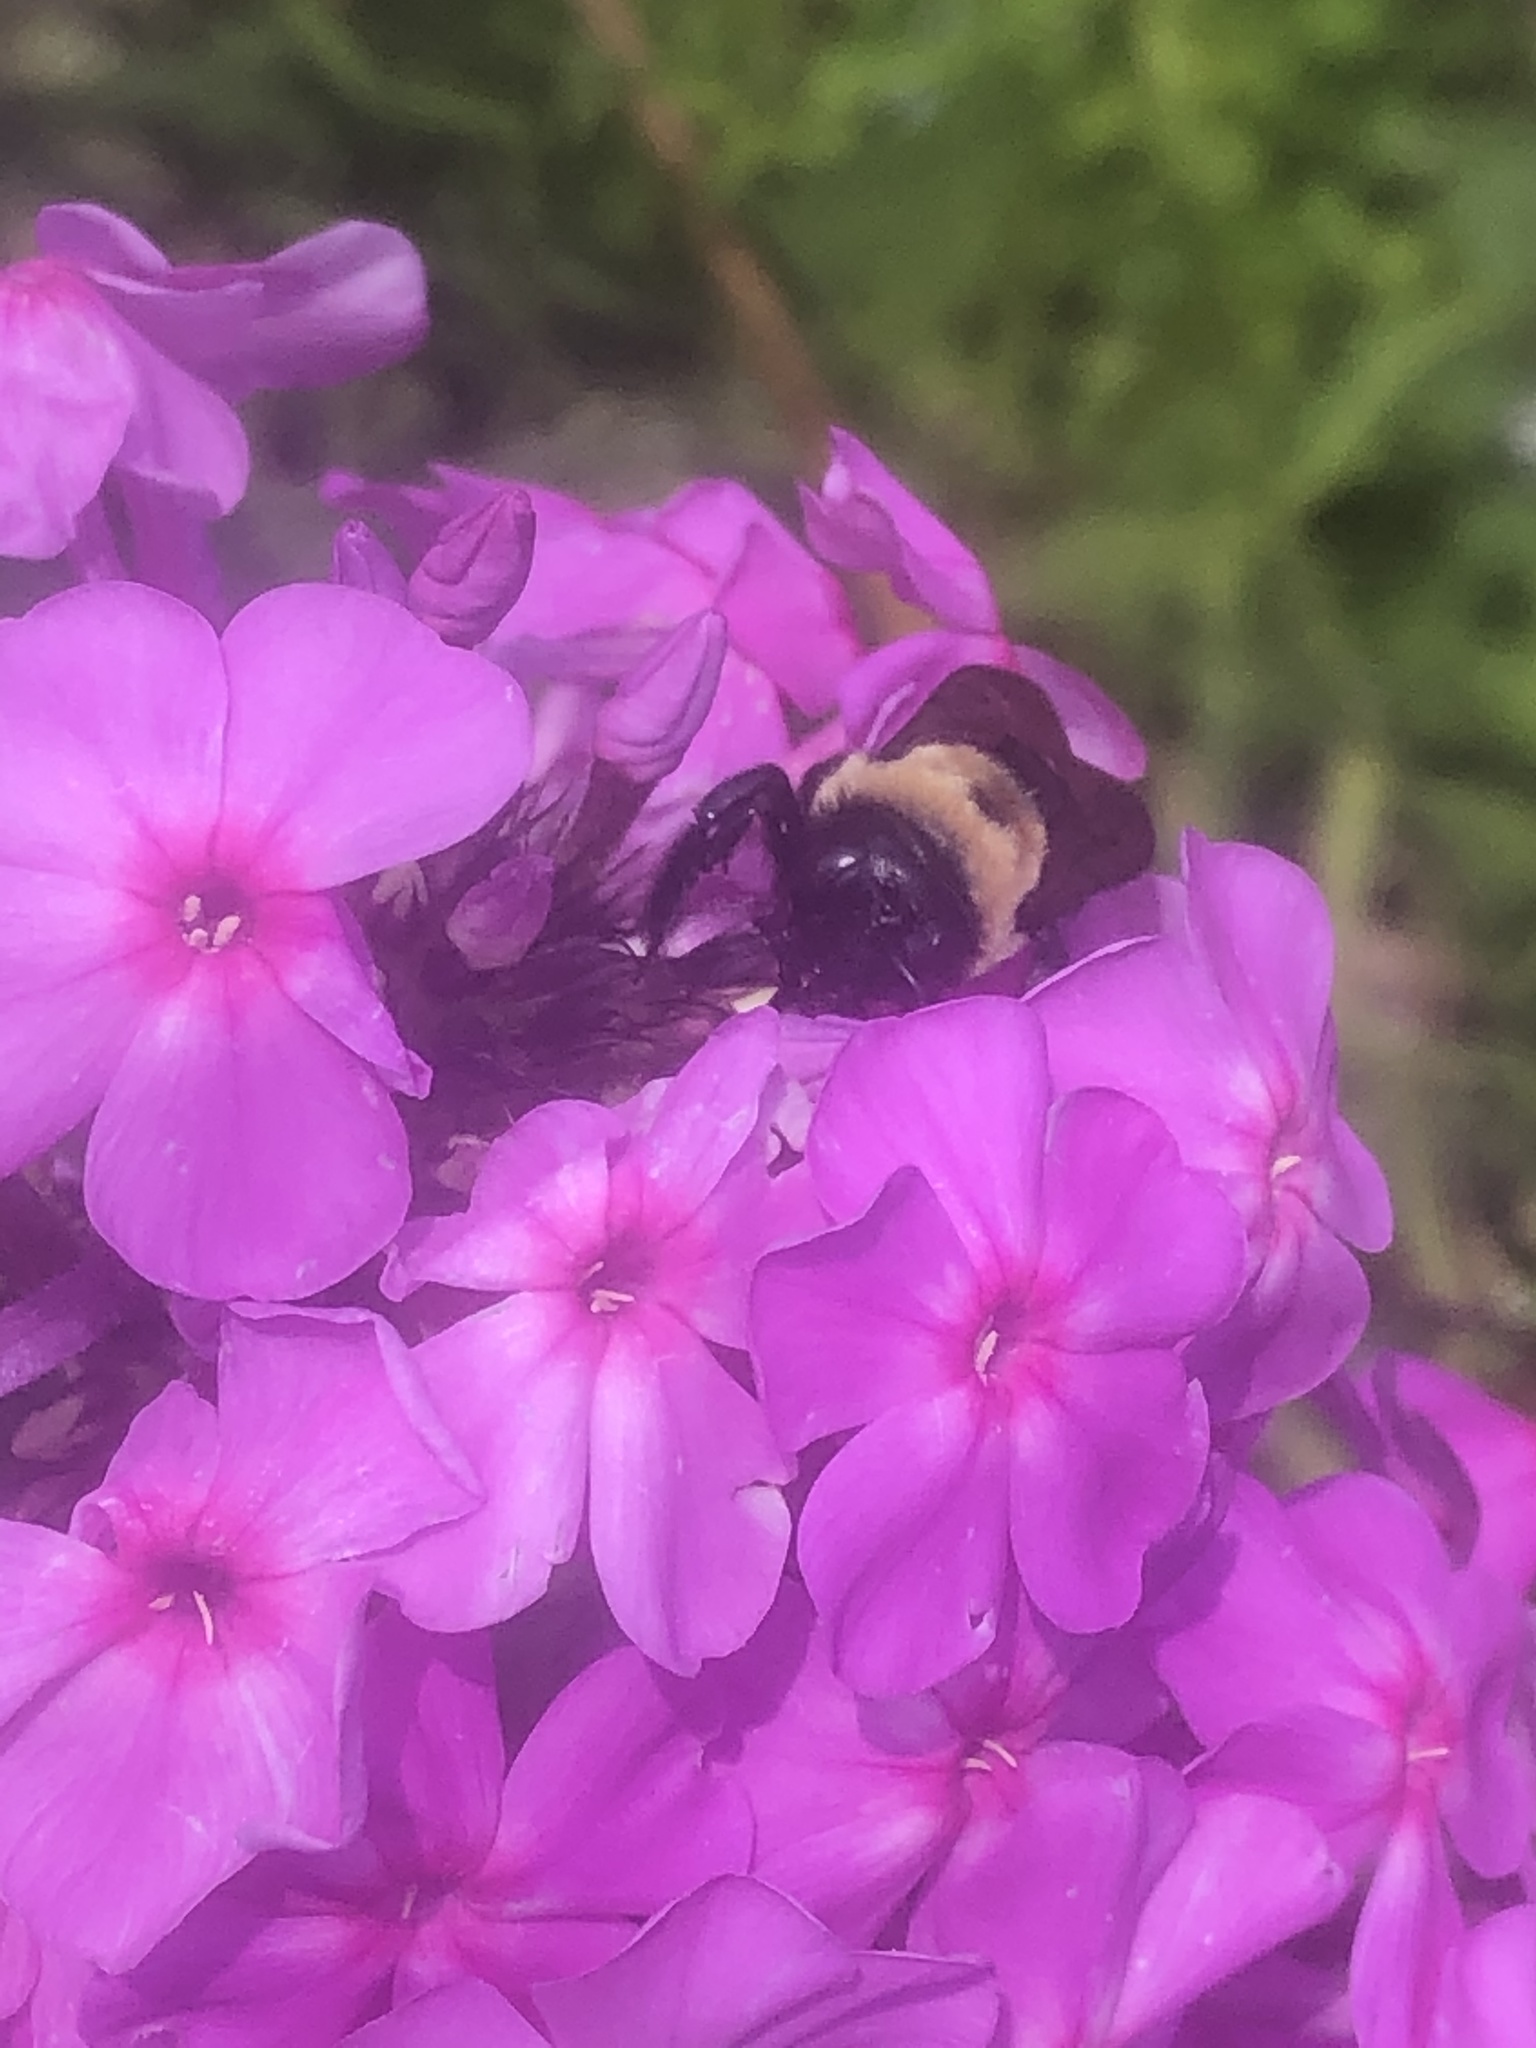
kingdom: Animalia
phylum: Arthropoda
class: Insecta
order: Hymenoptera
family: Apidae
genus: Xylocopa
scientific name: Xylocopa virginica
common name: Carpenter bee
